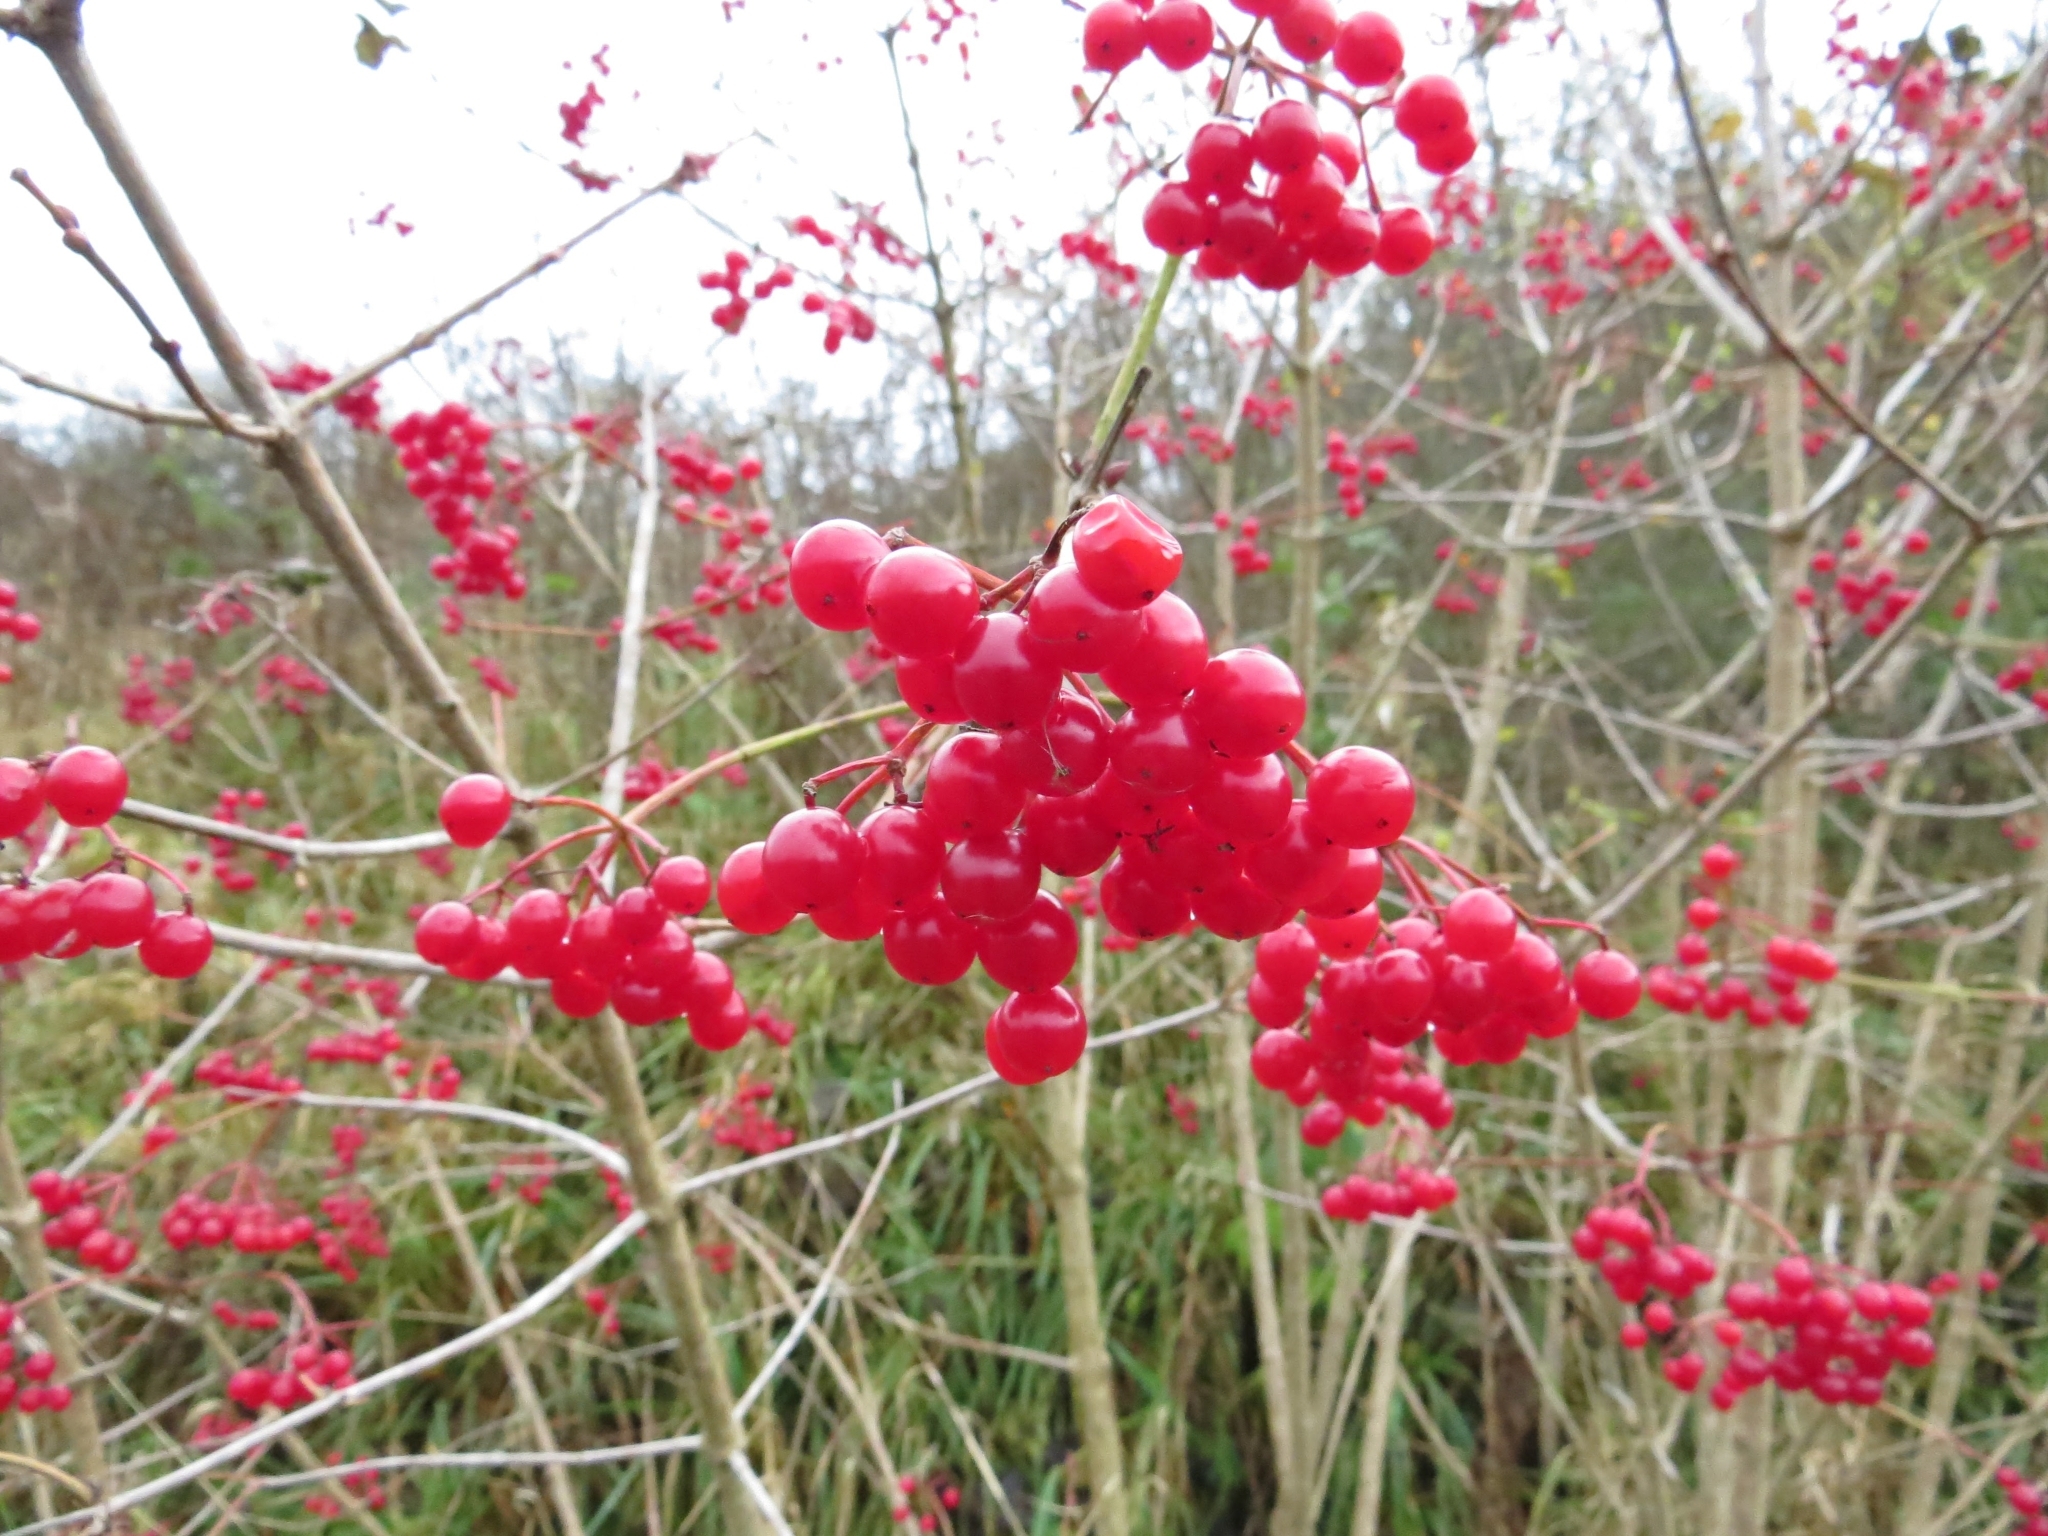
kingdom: Plantae
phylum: Tracheophyta
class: Magnoliopsida
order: Dipsacales
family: Viburnaceae
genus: Viburnum
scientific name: Viburnum opulus
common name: Guelder-rose
